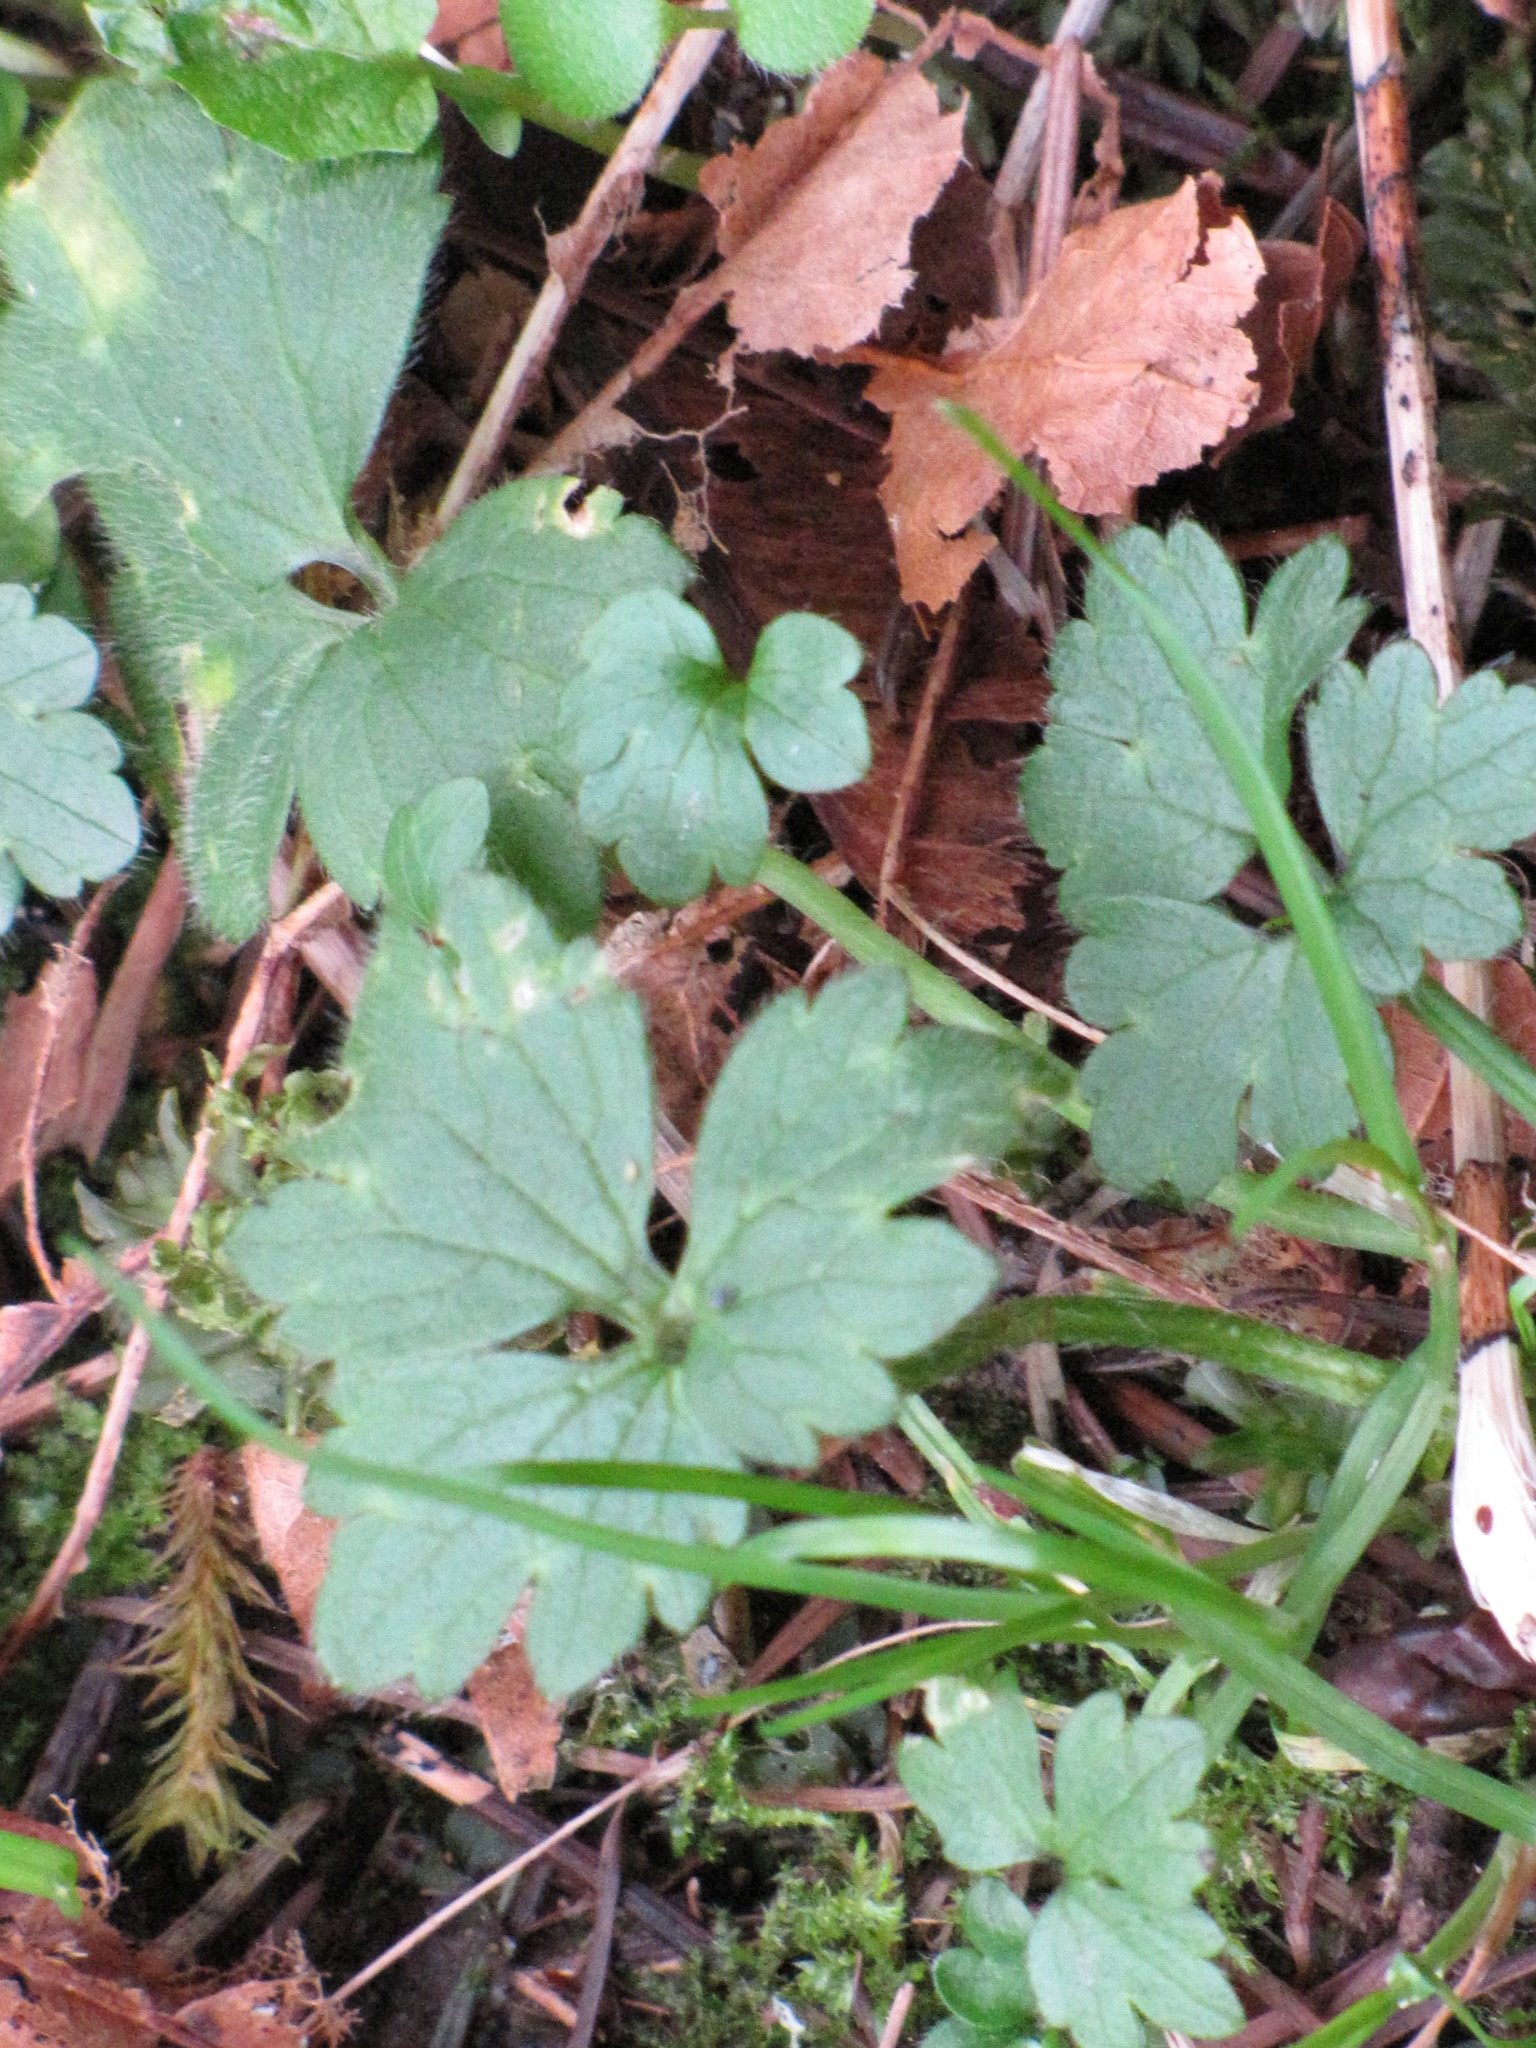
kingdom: Plantae
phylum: Tracheophyta
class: Magnoliopsida
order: Ranunculales
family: Ranunculaceae
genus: Ranunculus
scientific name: Ranunculus repens
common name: Creeping buttercup
